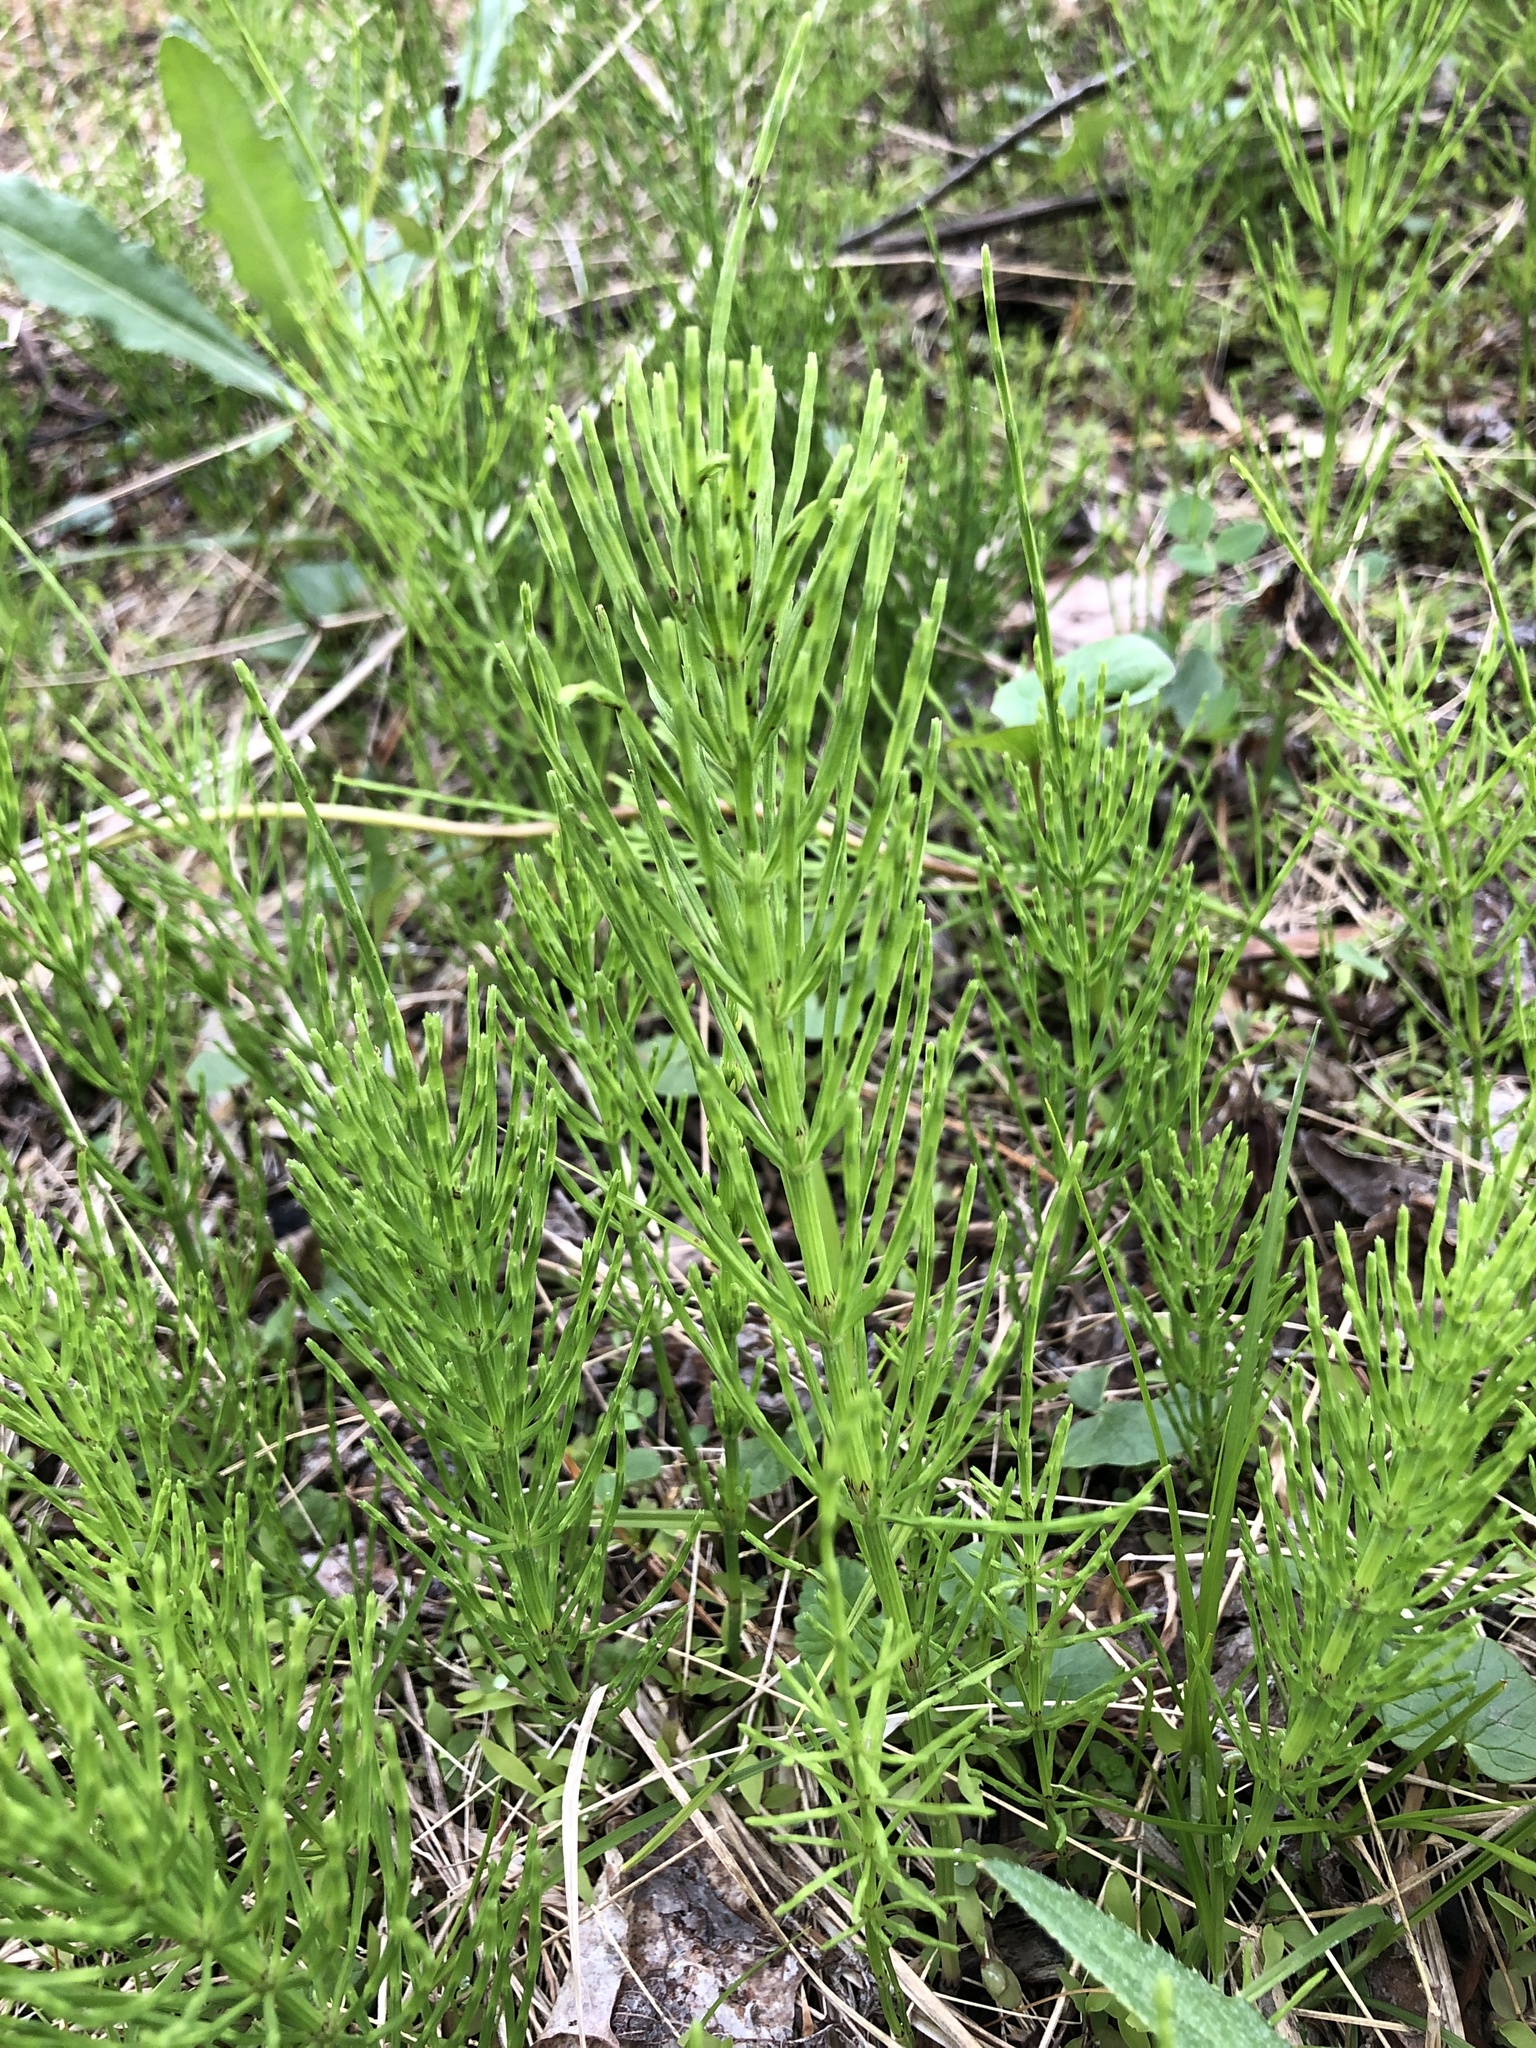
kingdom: Plantae
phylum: Tracheophyta
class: Polypodiopsida
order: Equisetales
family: Equisetaceae
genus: Equisetum
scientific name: Equisetum arvense
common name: Field horsetail
